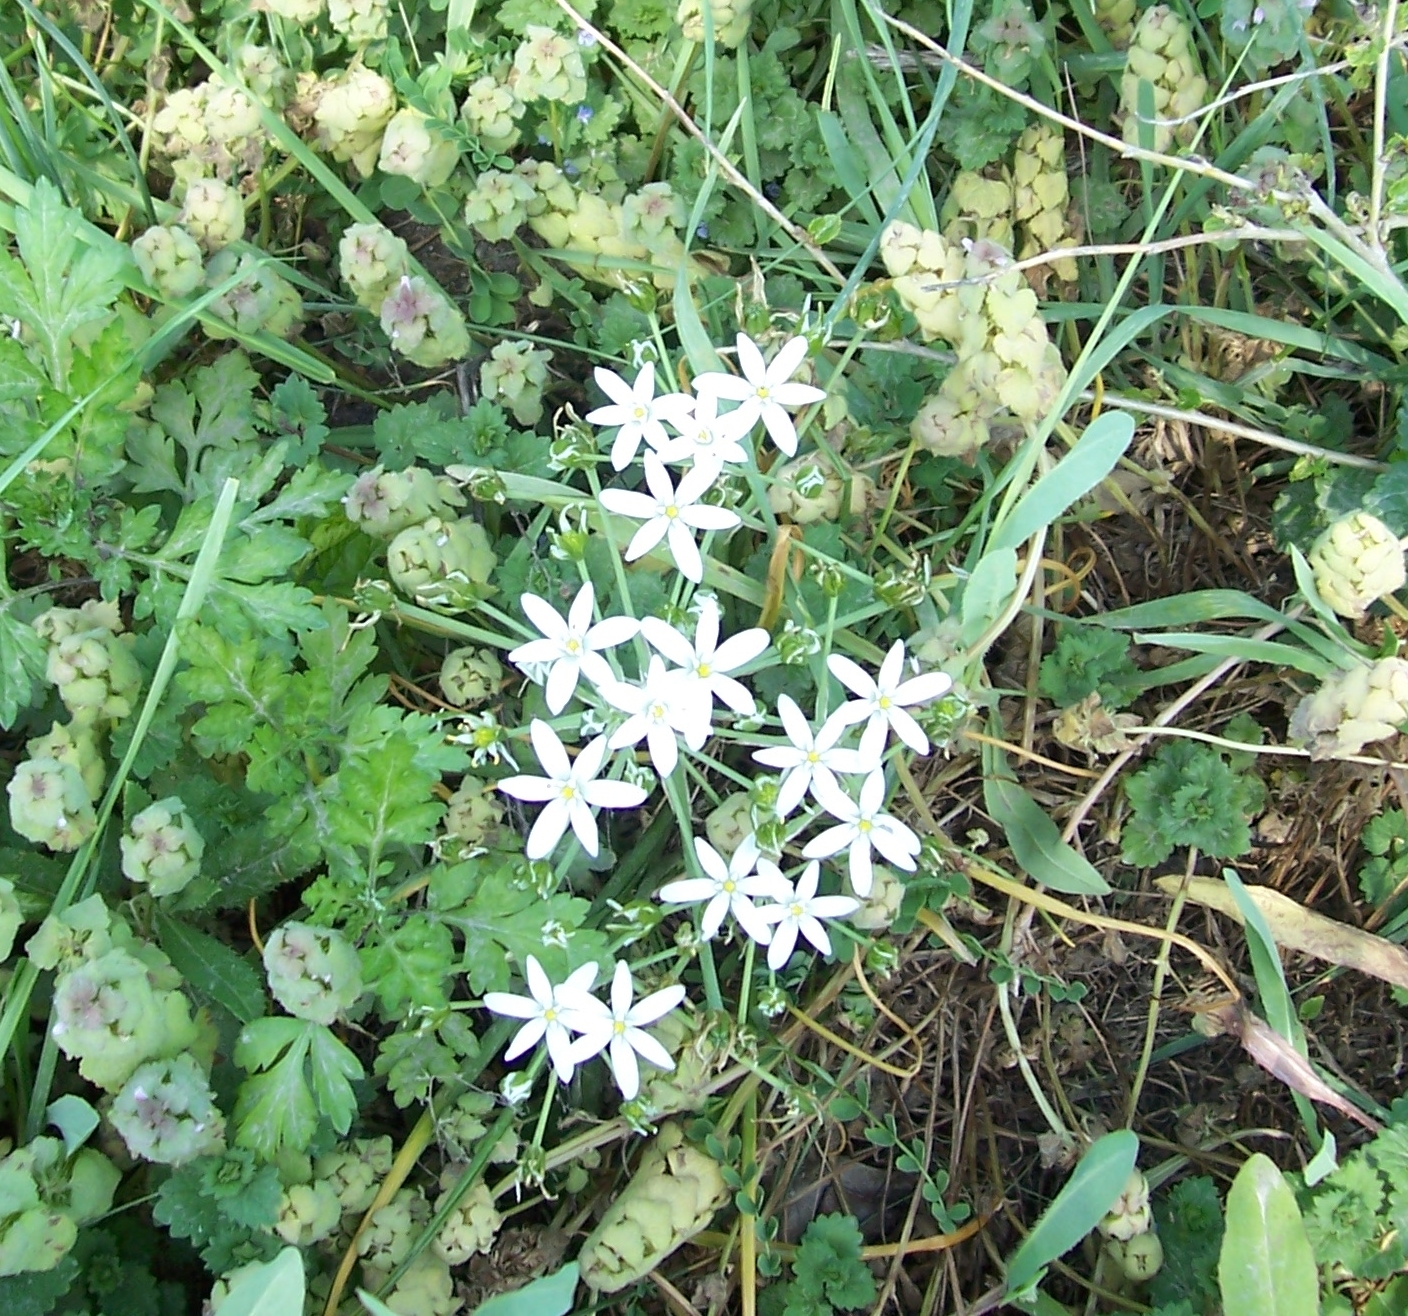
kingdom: Plantae
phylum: Tracheophyta
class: Liliopsida
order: Asparagales
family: Asparagaceae
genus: Ornithogalum
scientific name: Ornithogalum umbellatum
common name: Garden star-of-bethlehem
